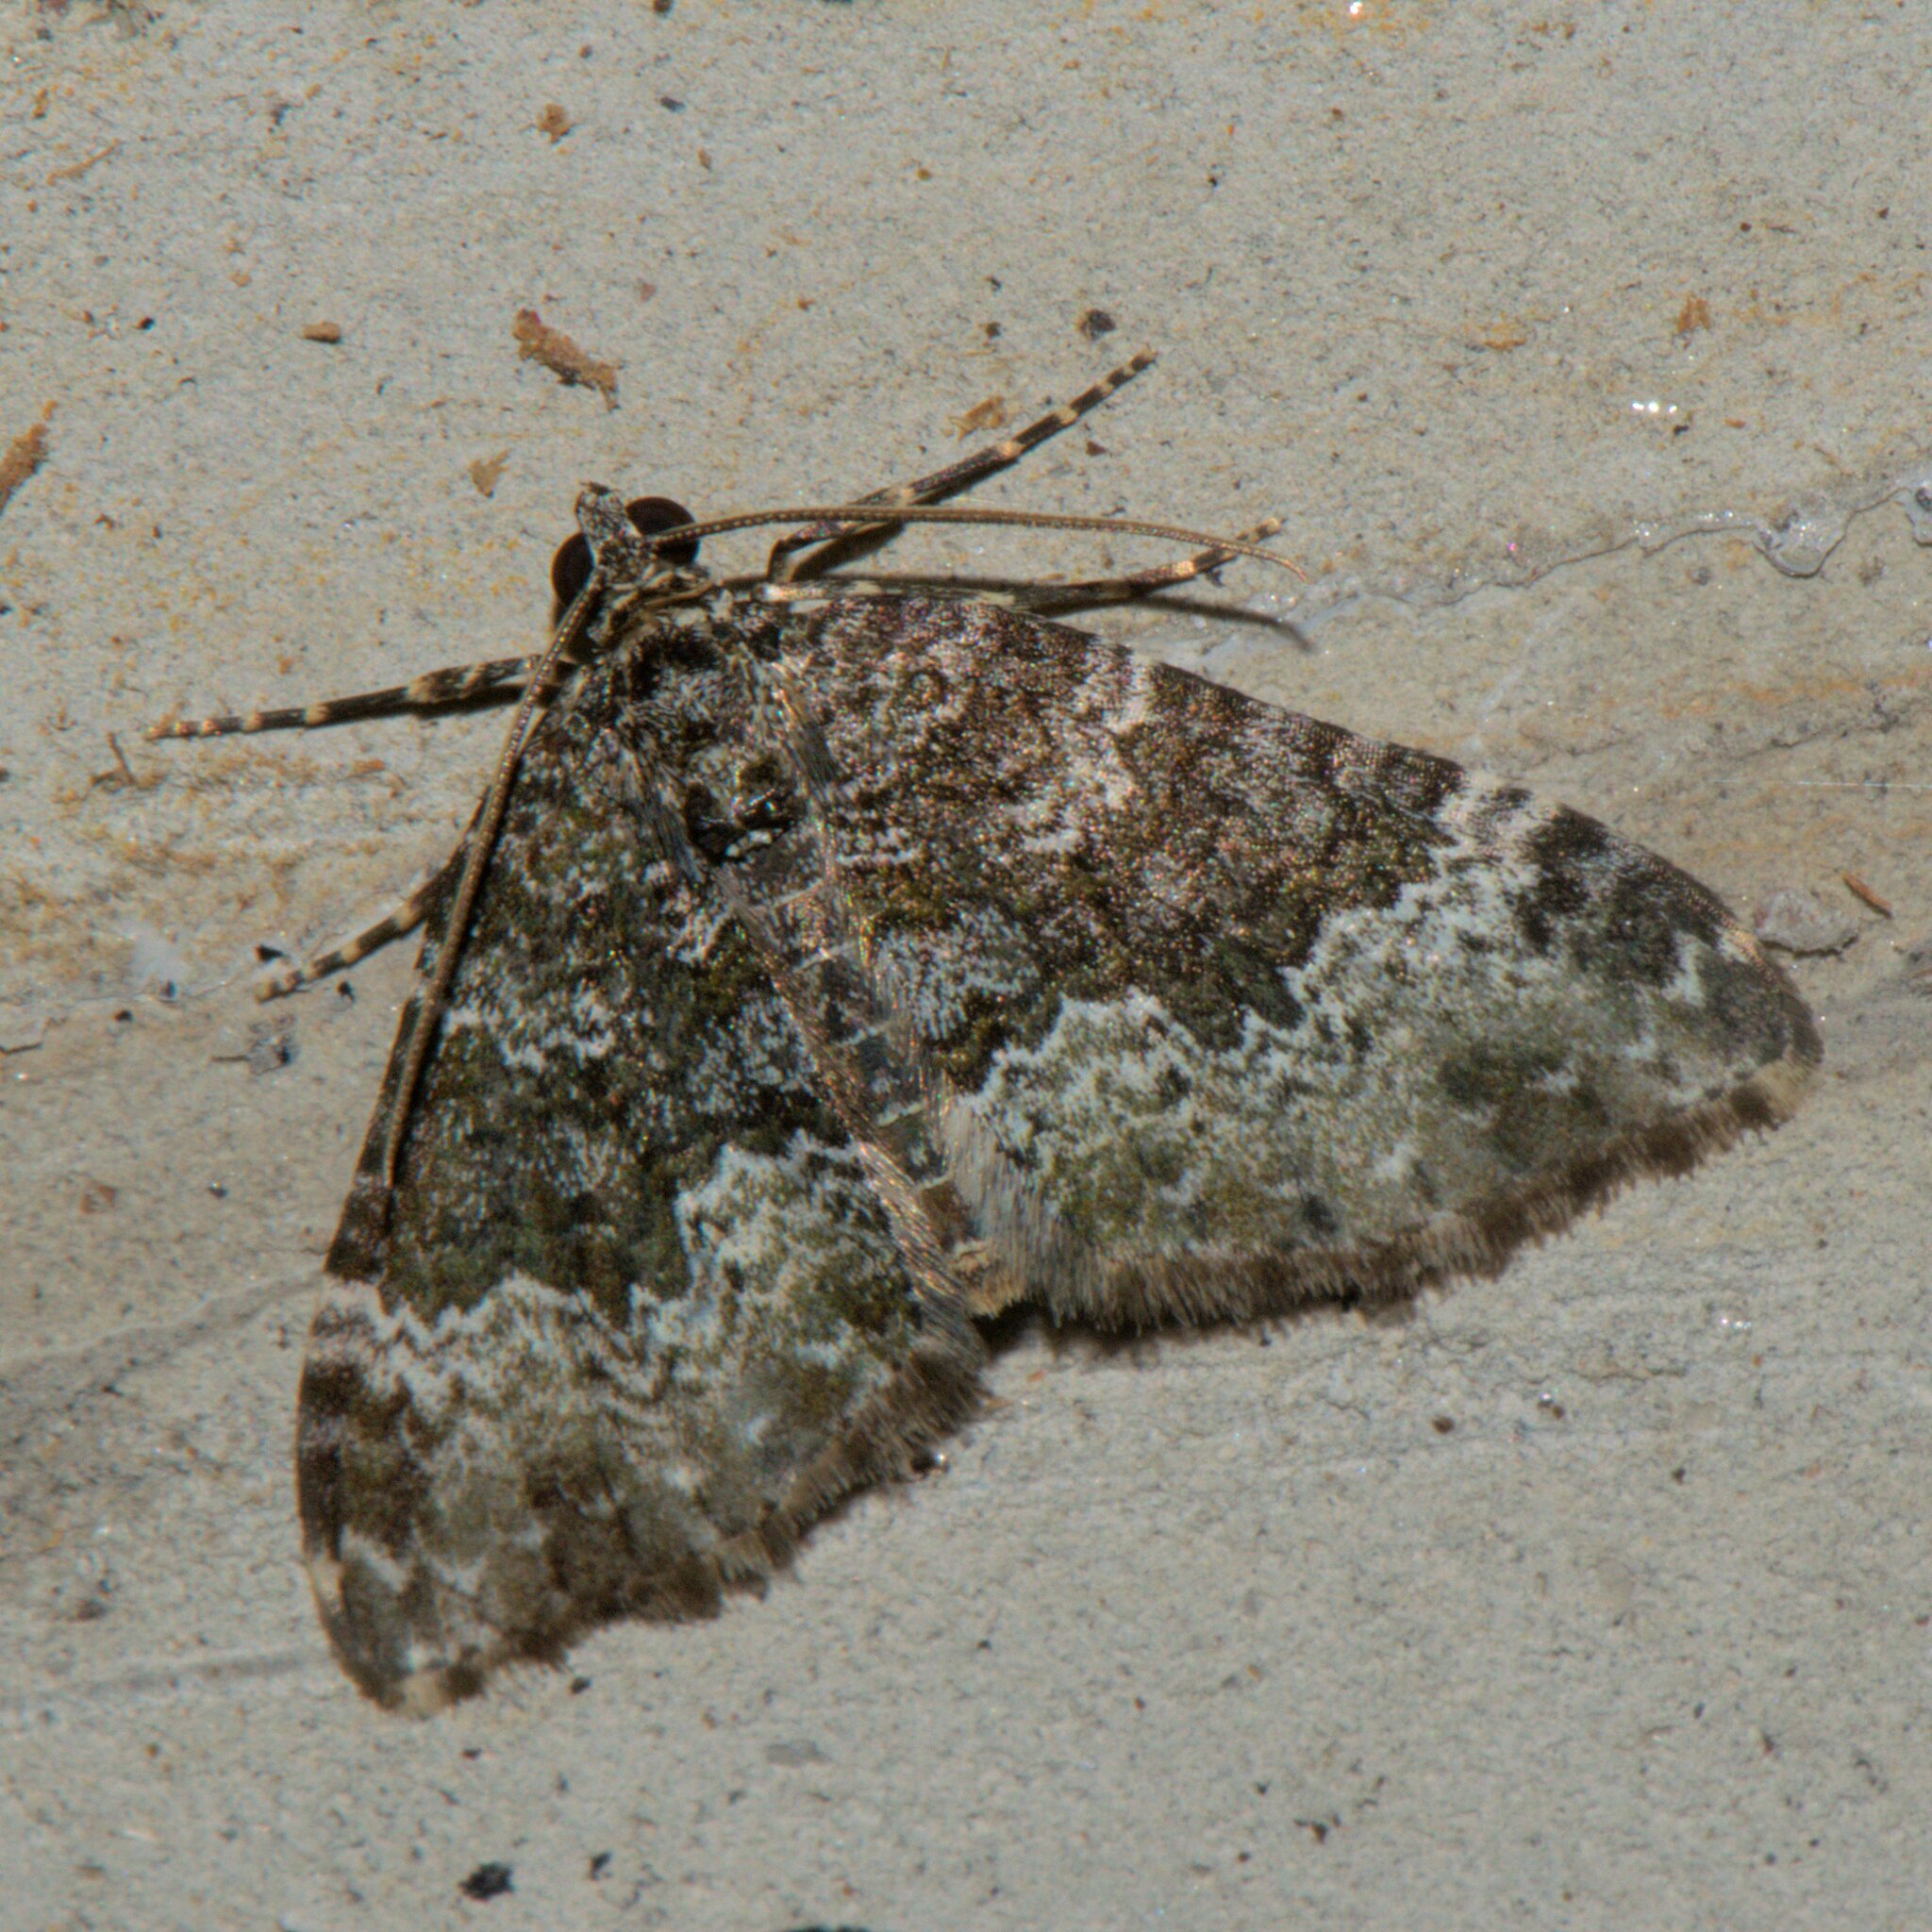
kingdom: Animalia
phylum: Arthropoda
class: Insecta
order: Lepidoptera
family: Geometridae
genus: Xanthorhoe
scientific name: Xanthorhoe saturata
